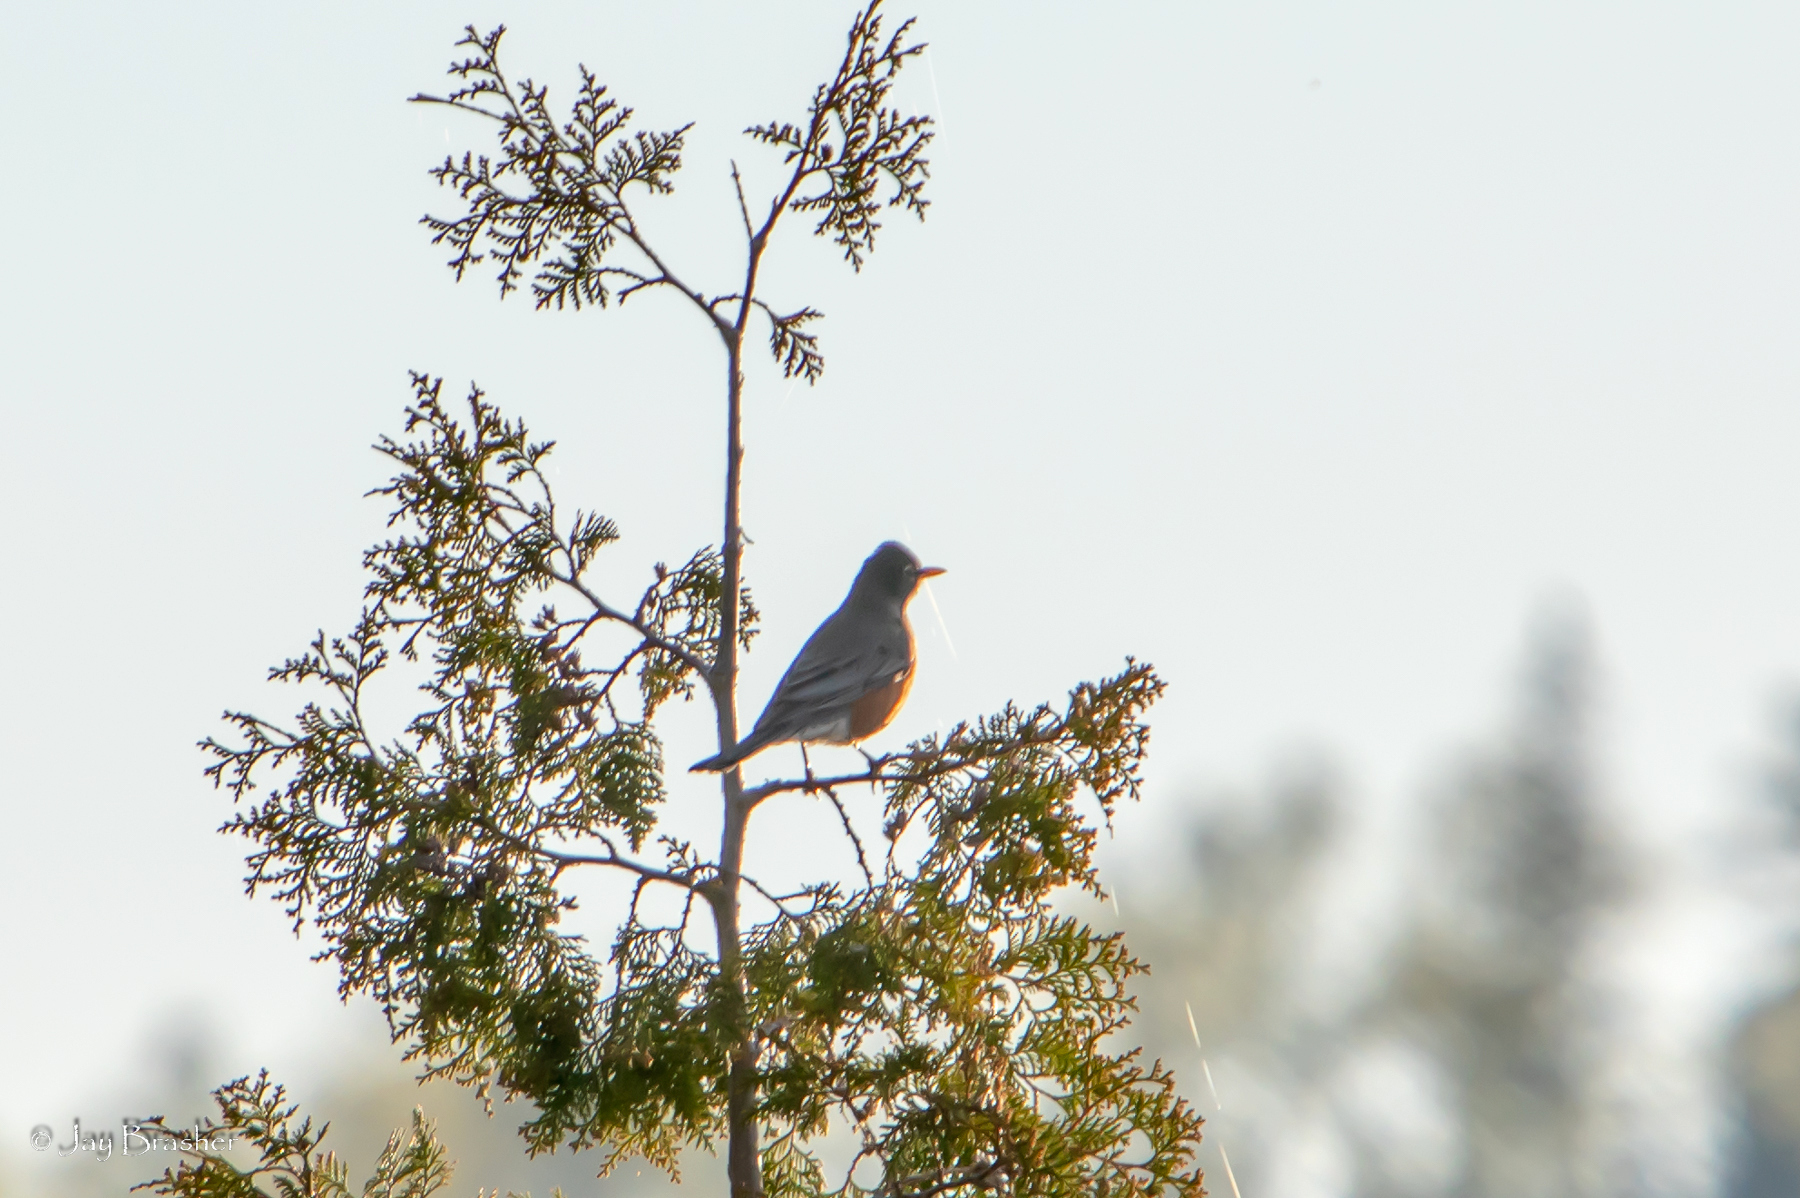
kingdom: Animalia
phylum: Chordata
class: Aves
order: Passeriformes
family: Turdidae
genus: Turdus
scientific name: Turdus migratorius
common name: American robin
